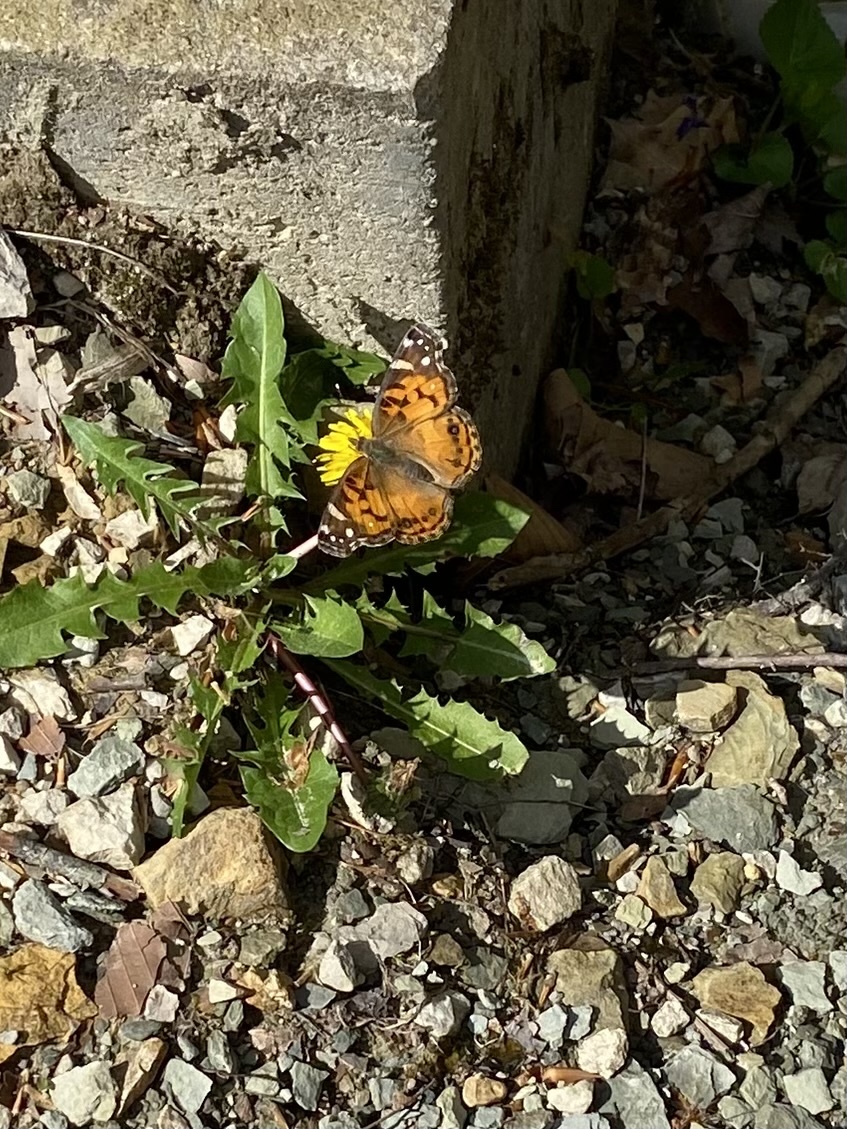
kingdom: Animalia
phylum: Arthropoda
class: Insecta
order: Lepidoptera
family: Nymphalidae
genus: Vanessa
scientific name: Vanessa virginiensis
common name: American lady
